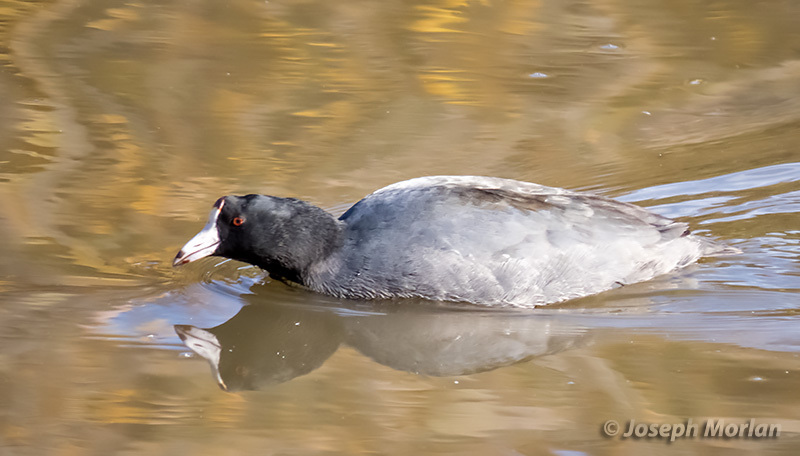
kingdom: Animalia
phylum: Chordata
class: Aves
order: Gruiformes
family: Rallidae
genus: Fulica
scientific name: Fulica americana
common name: American coot
